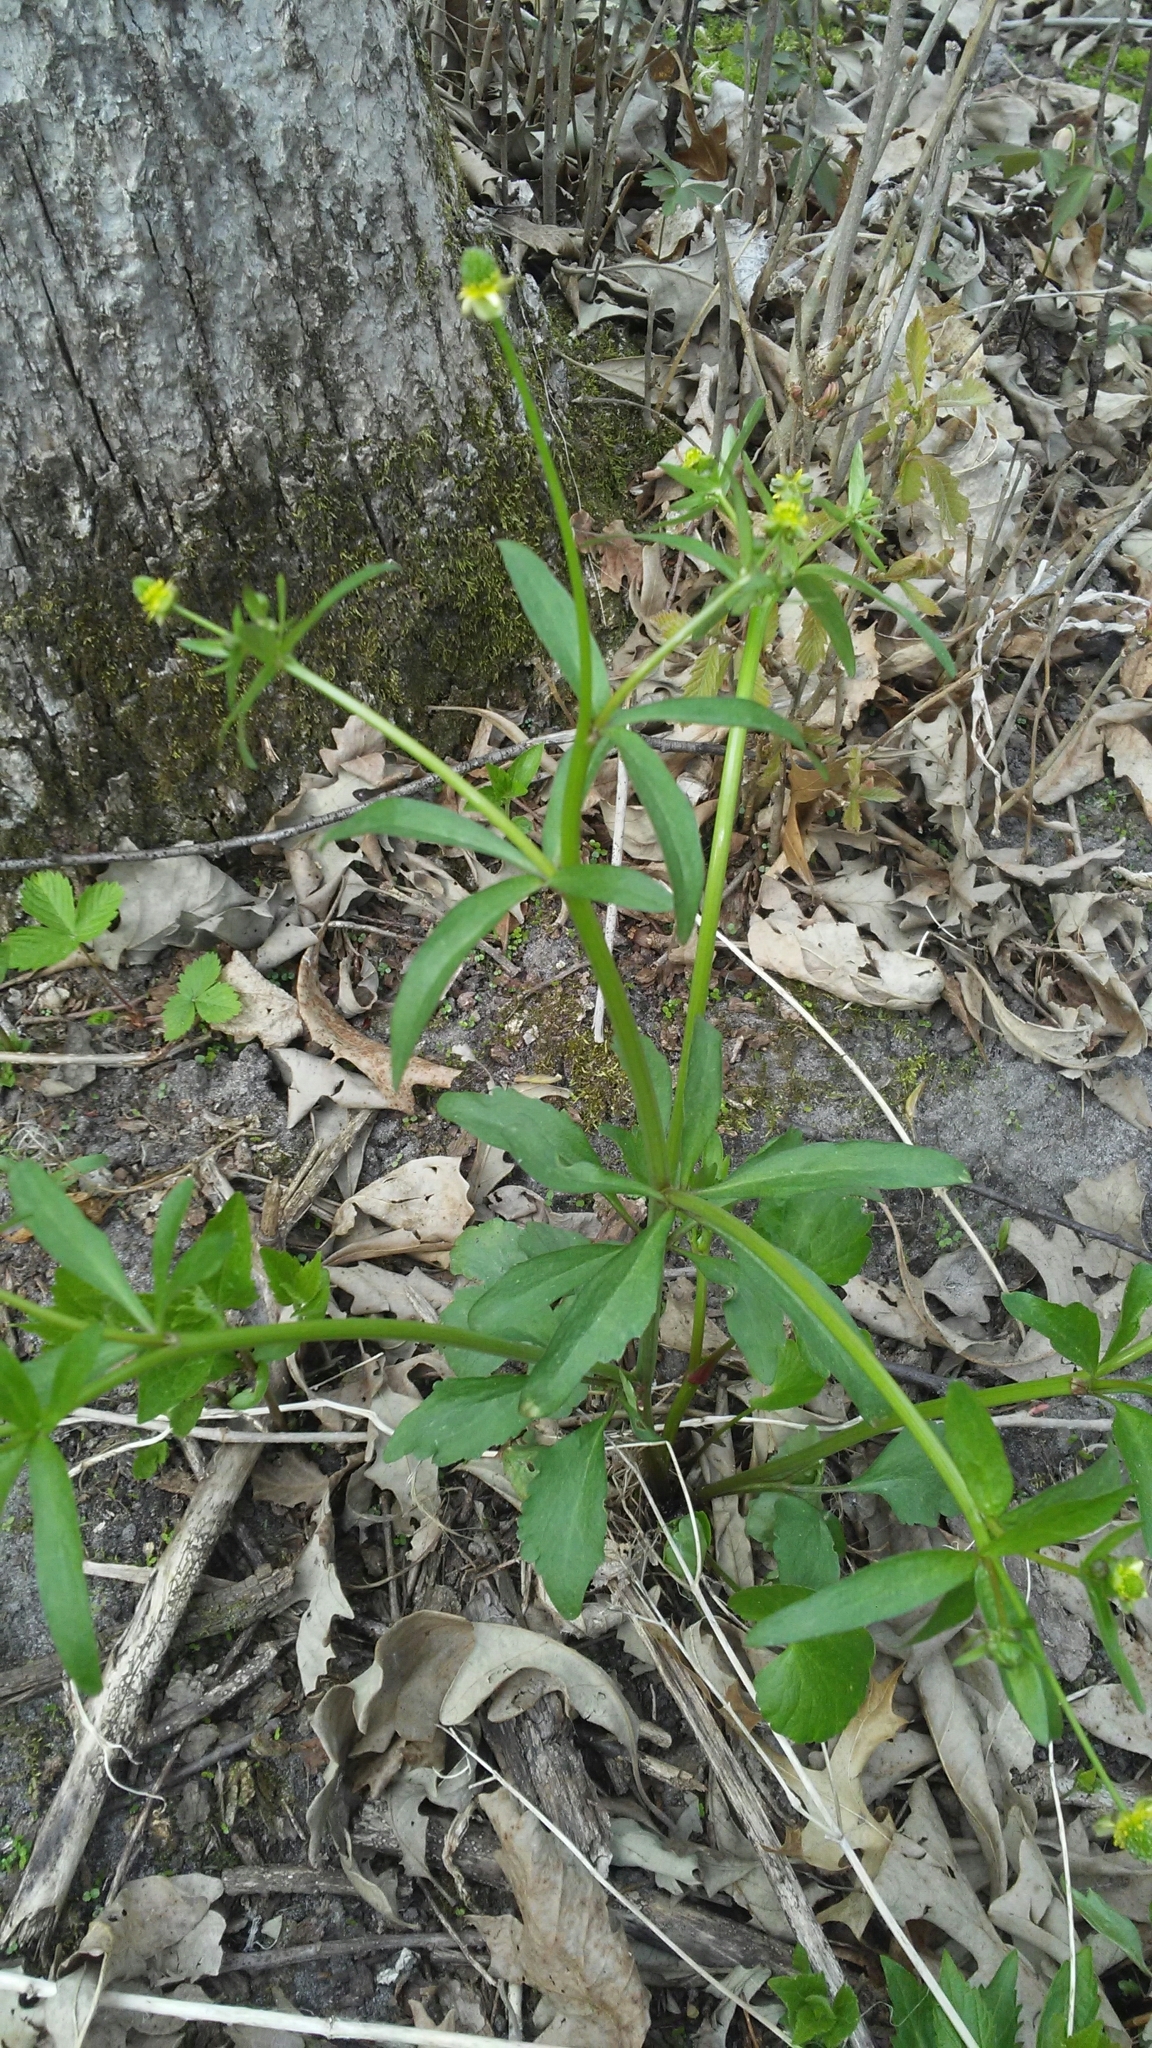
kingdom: Plantae
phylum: Tracheophyta
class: Magnoliopsida
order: Ranunculales
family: Ranunculaceae
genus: Ranunculus
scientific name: Ranunculus abortivus
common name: Early wood buttercup
